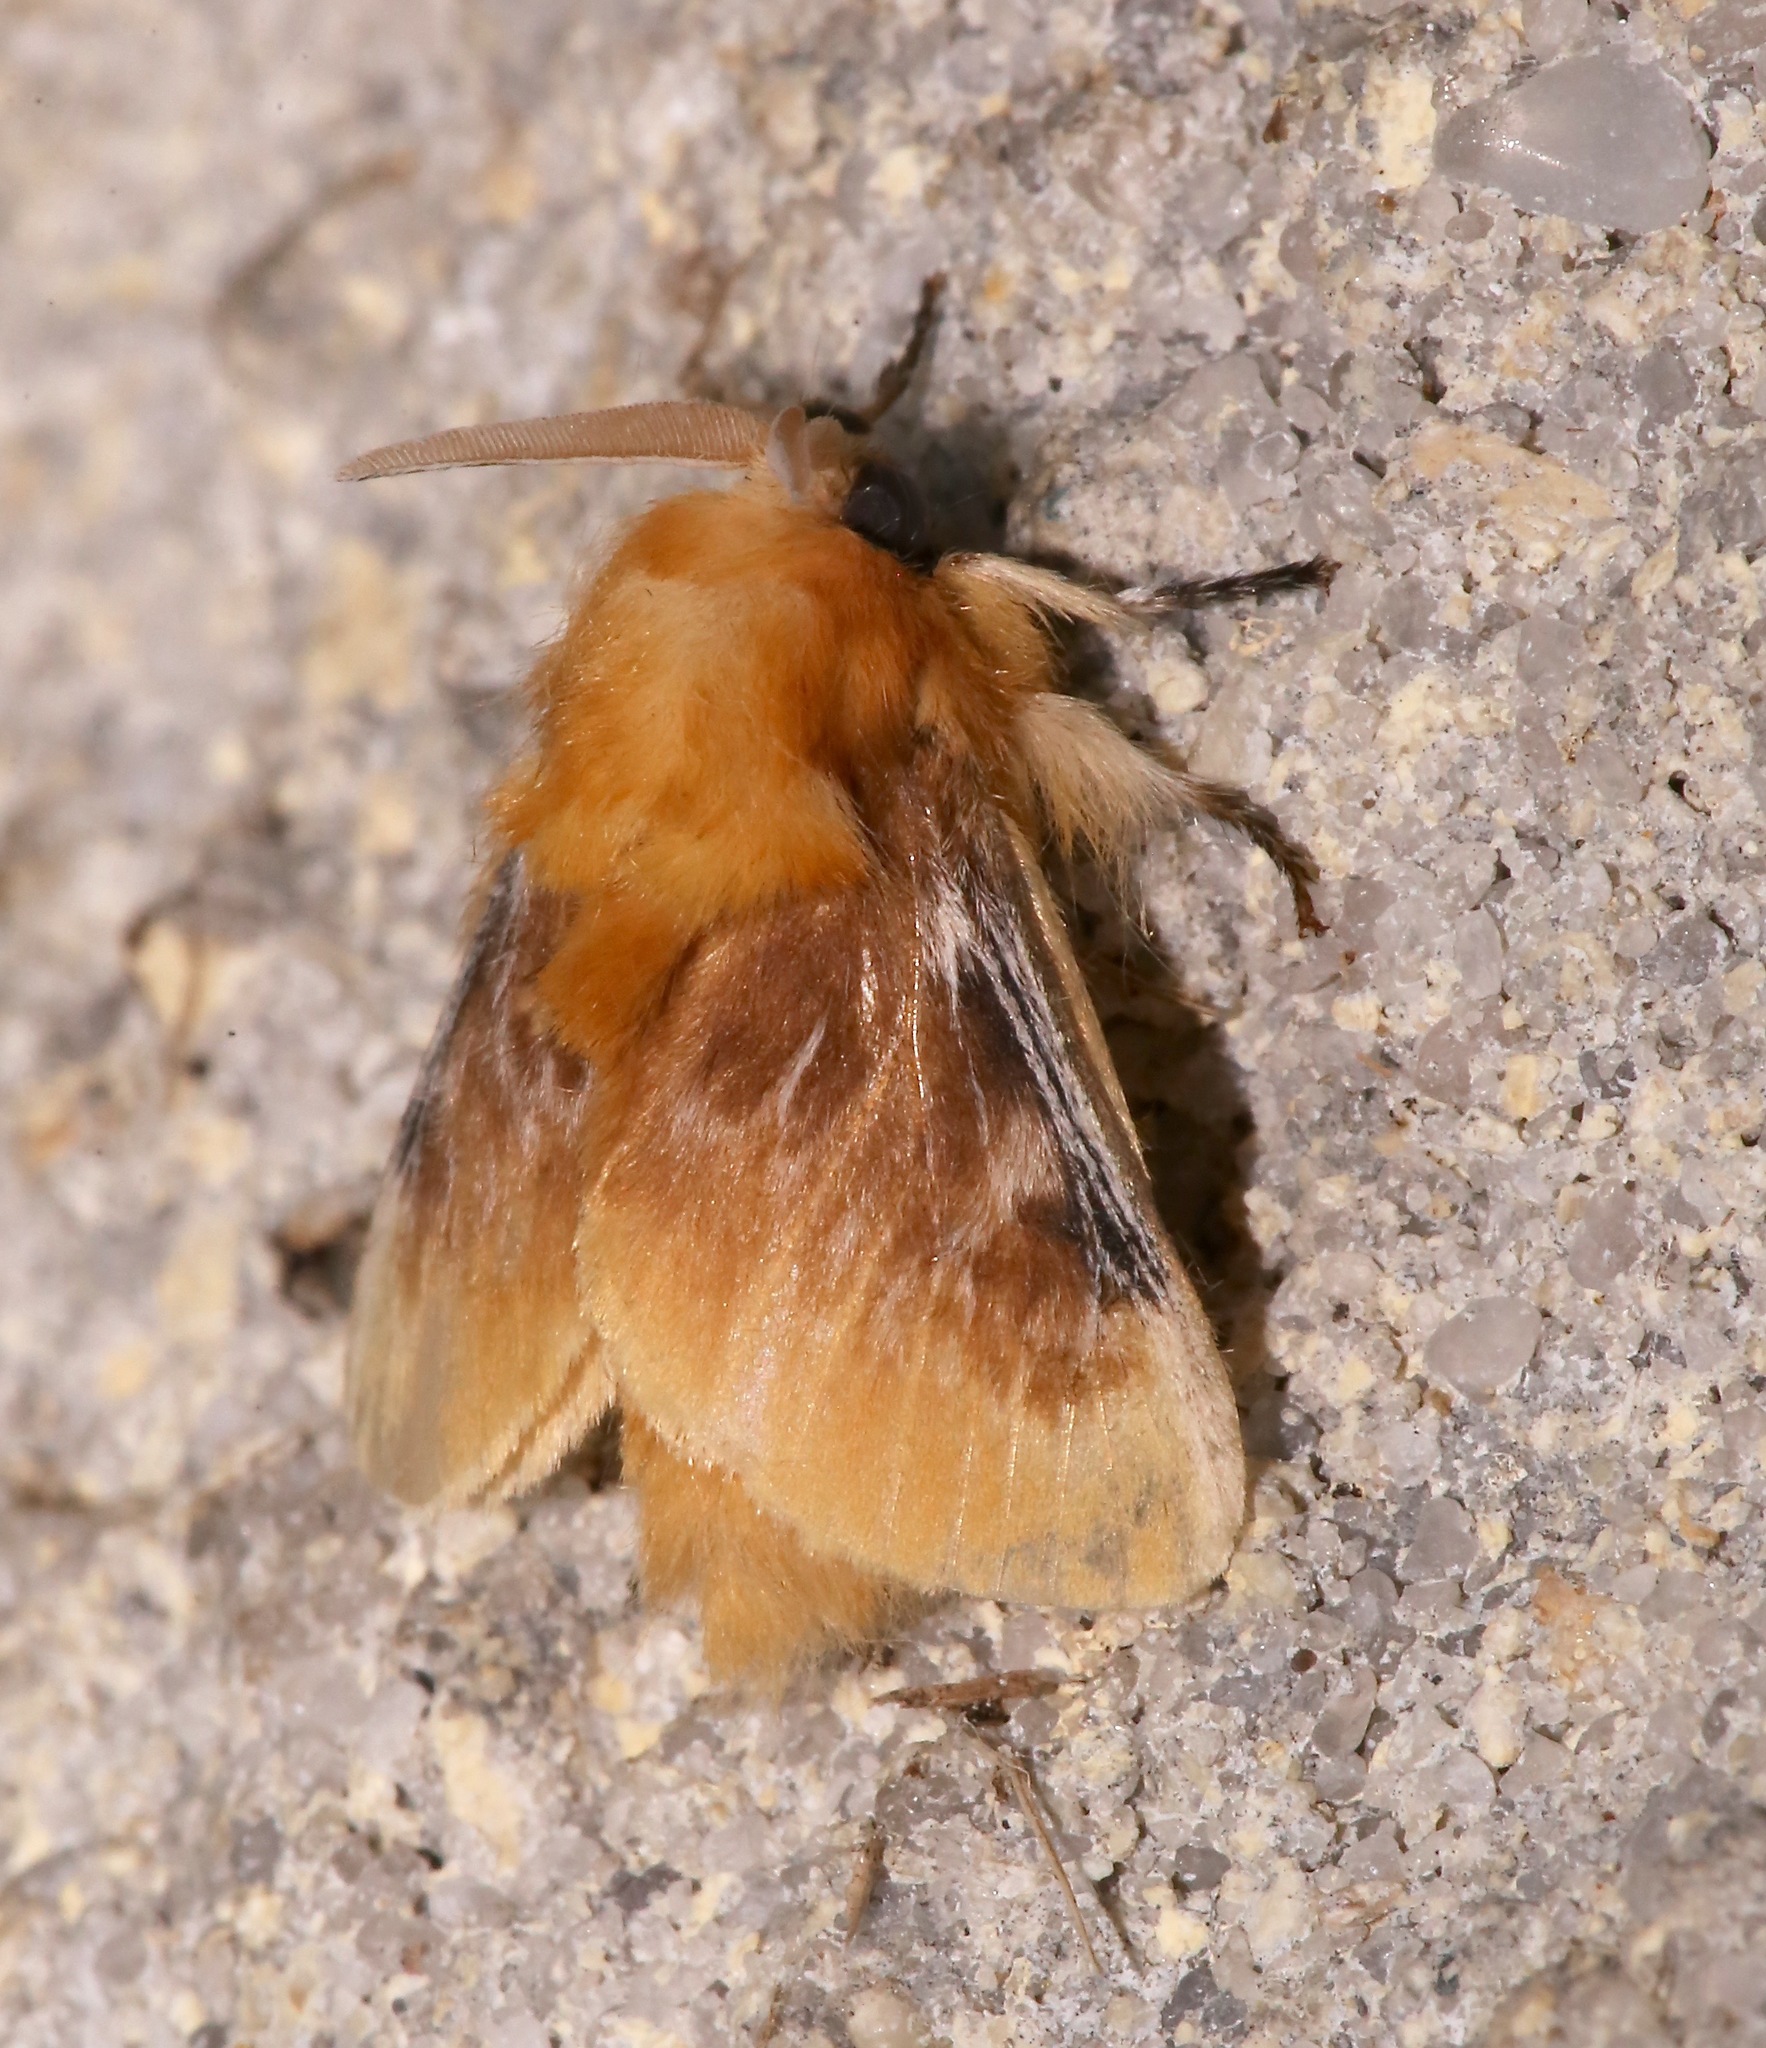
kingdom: Animalia
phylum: Arthropoda
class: Insecta
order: Lepidoptera
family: Megalopygidae
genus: Megalopyge
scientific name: Megalopyge opercularis
